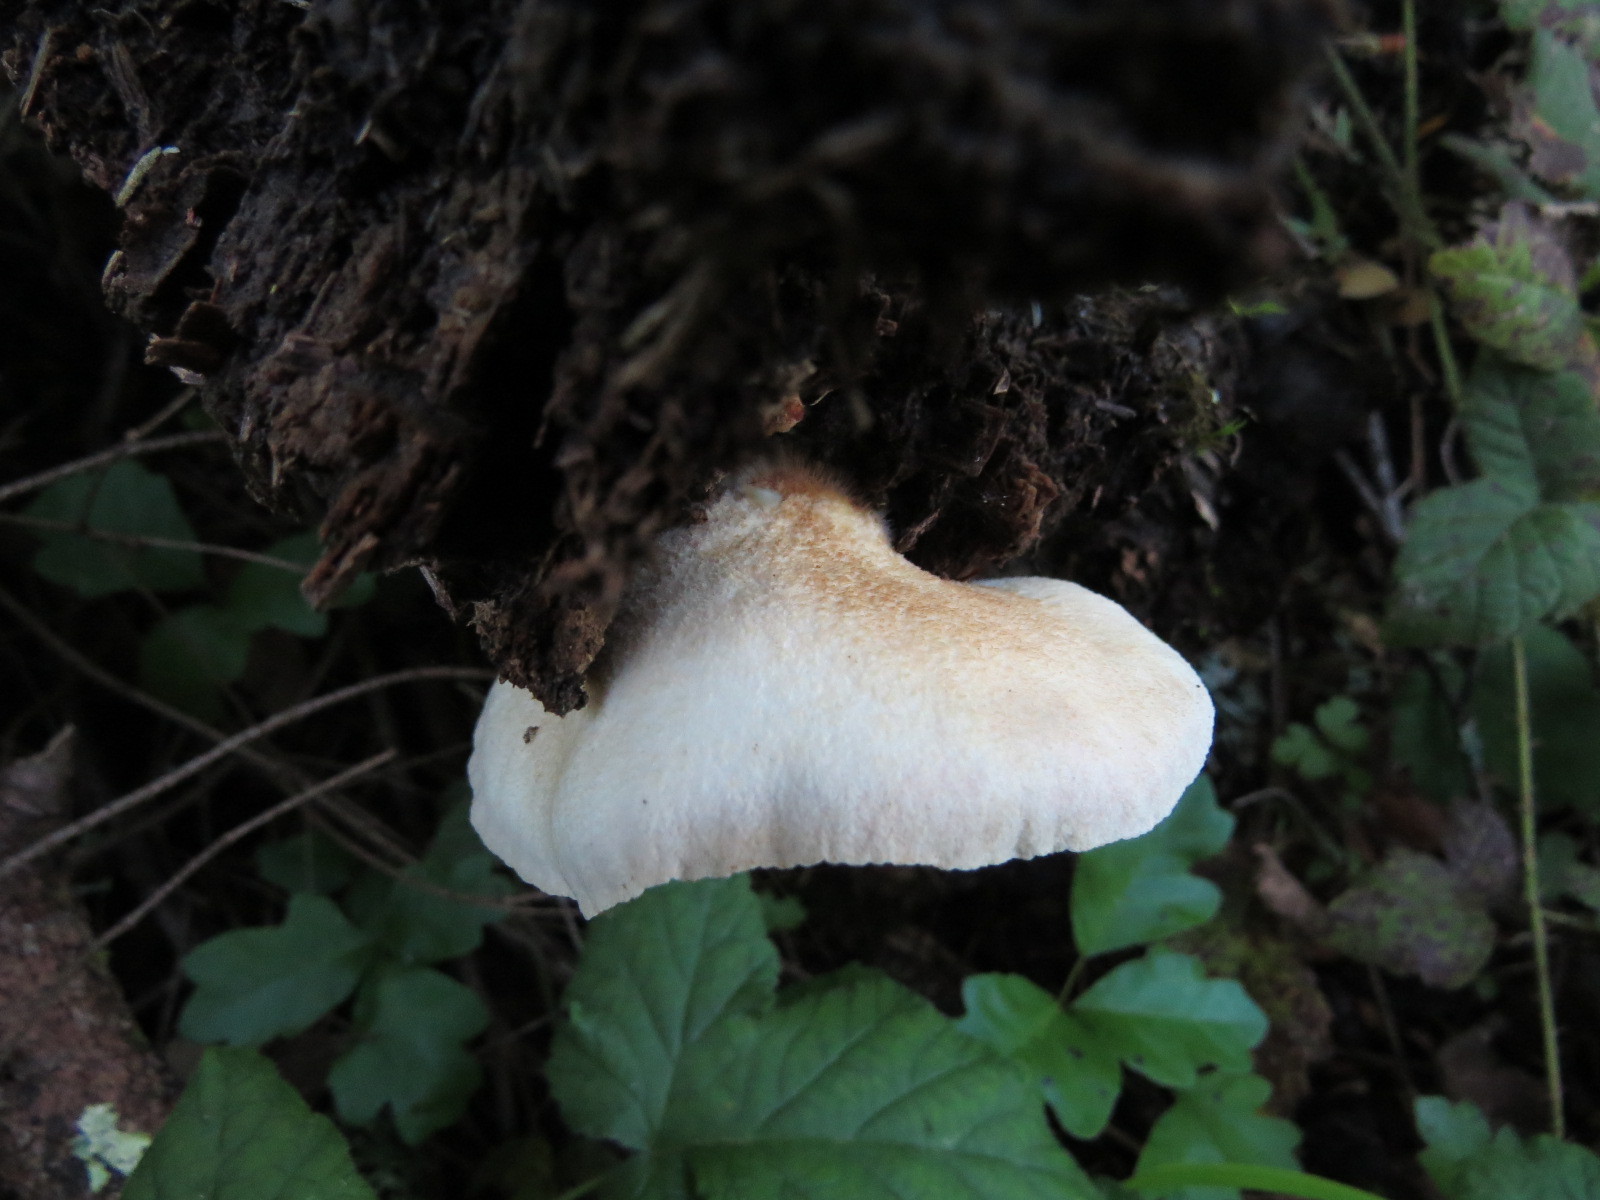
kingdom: Fungi
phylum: Basidiomycota
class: Agaricomycetes
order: Agaricales
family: Crepidotaceae
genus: Crepidotus
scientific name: Crepidotus mollis
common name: Peeling oysterling
